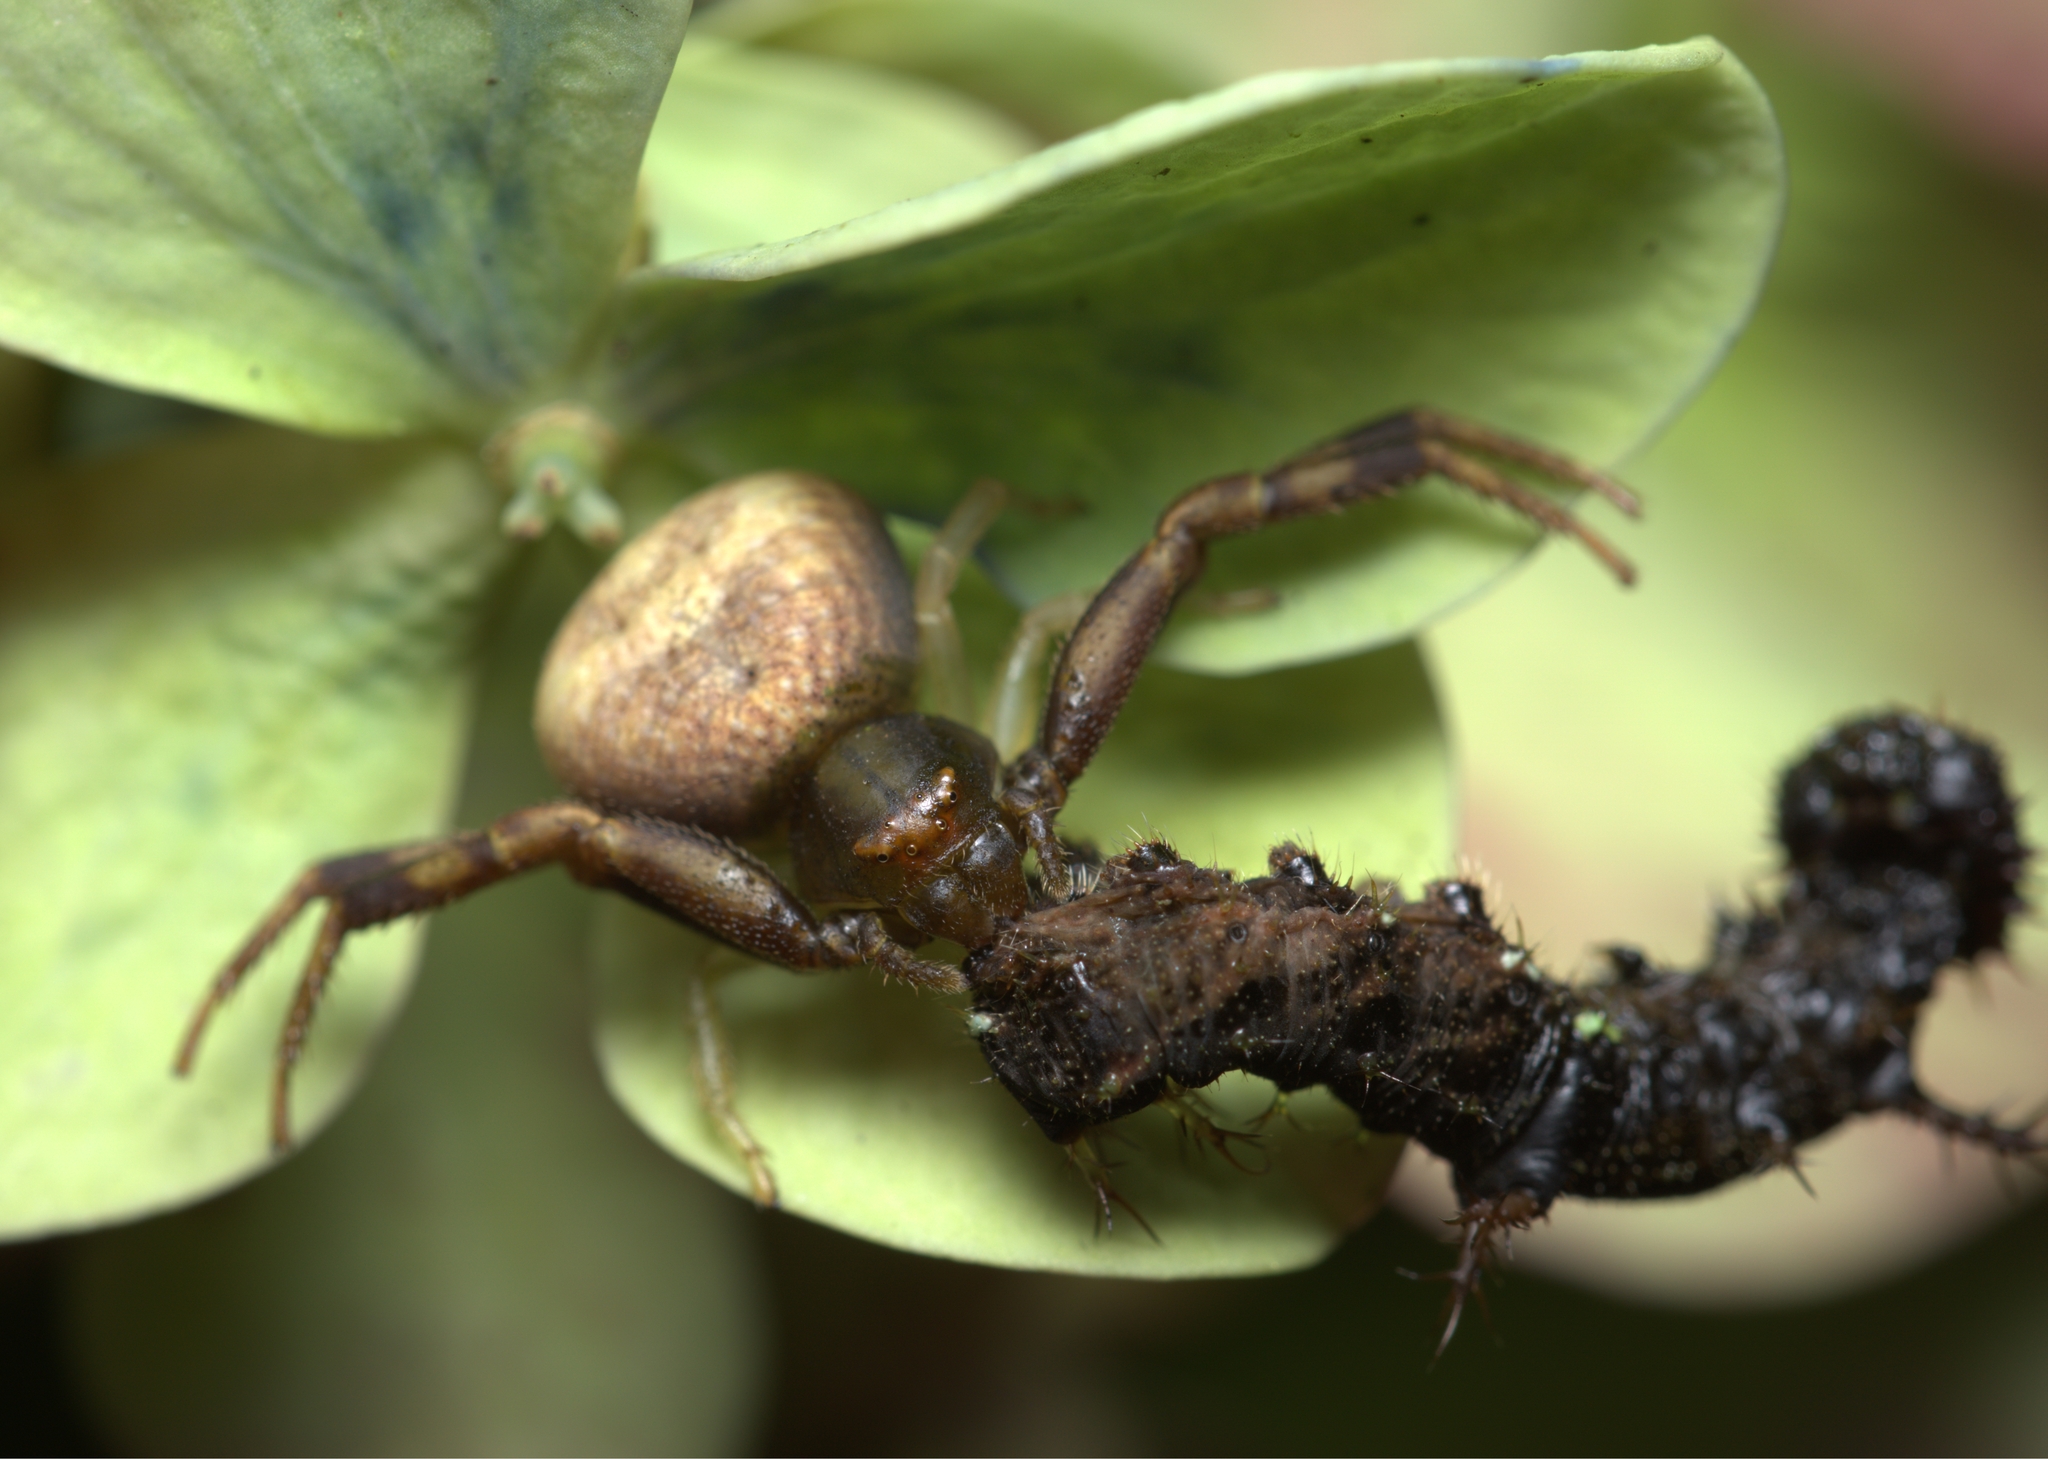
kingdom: Animalia
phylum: Arthropoda
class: Arachnida
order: Araneae
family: Thomisidae
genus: Runcinioides
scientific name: Runcinioides litteratus
